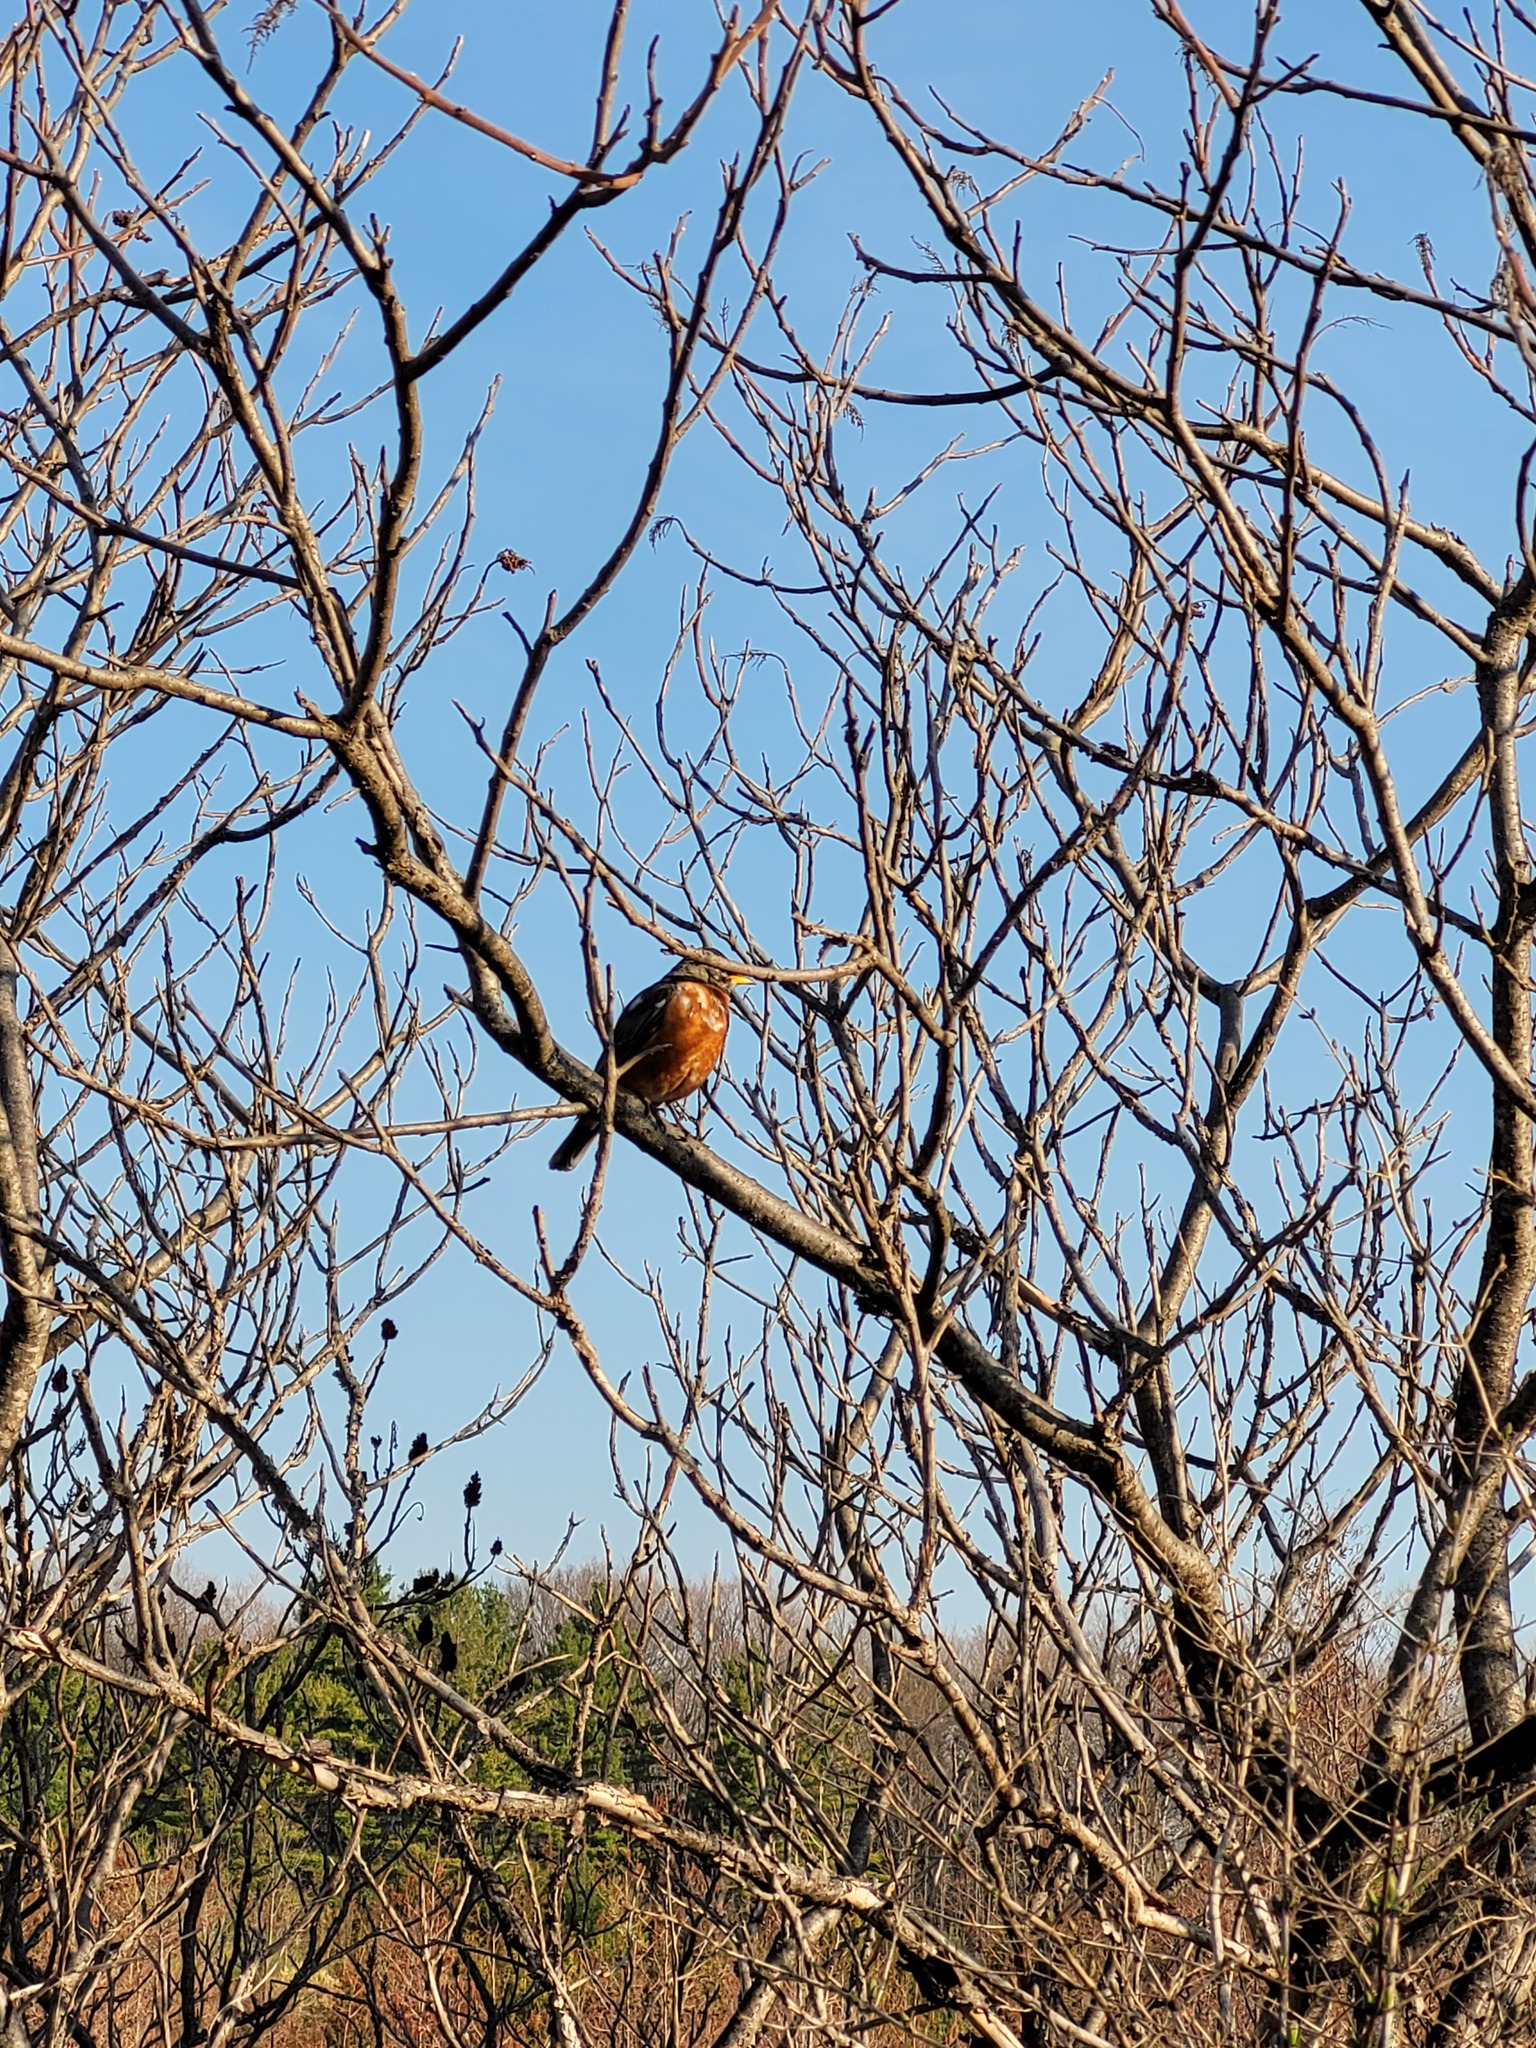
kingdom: Animalia
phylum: Chordata
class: Aves
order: Passeriformes
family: Turdidae
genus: Turdus
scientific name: Turdus migratorius
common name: American robin
